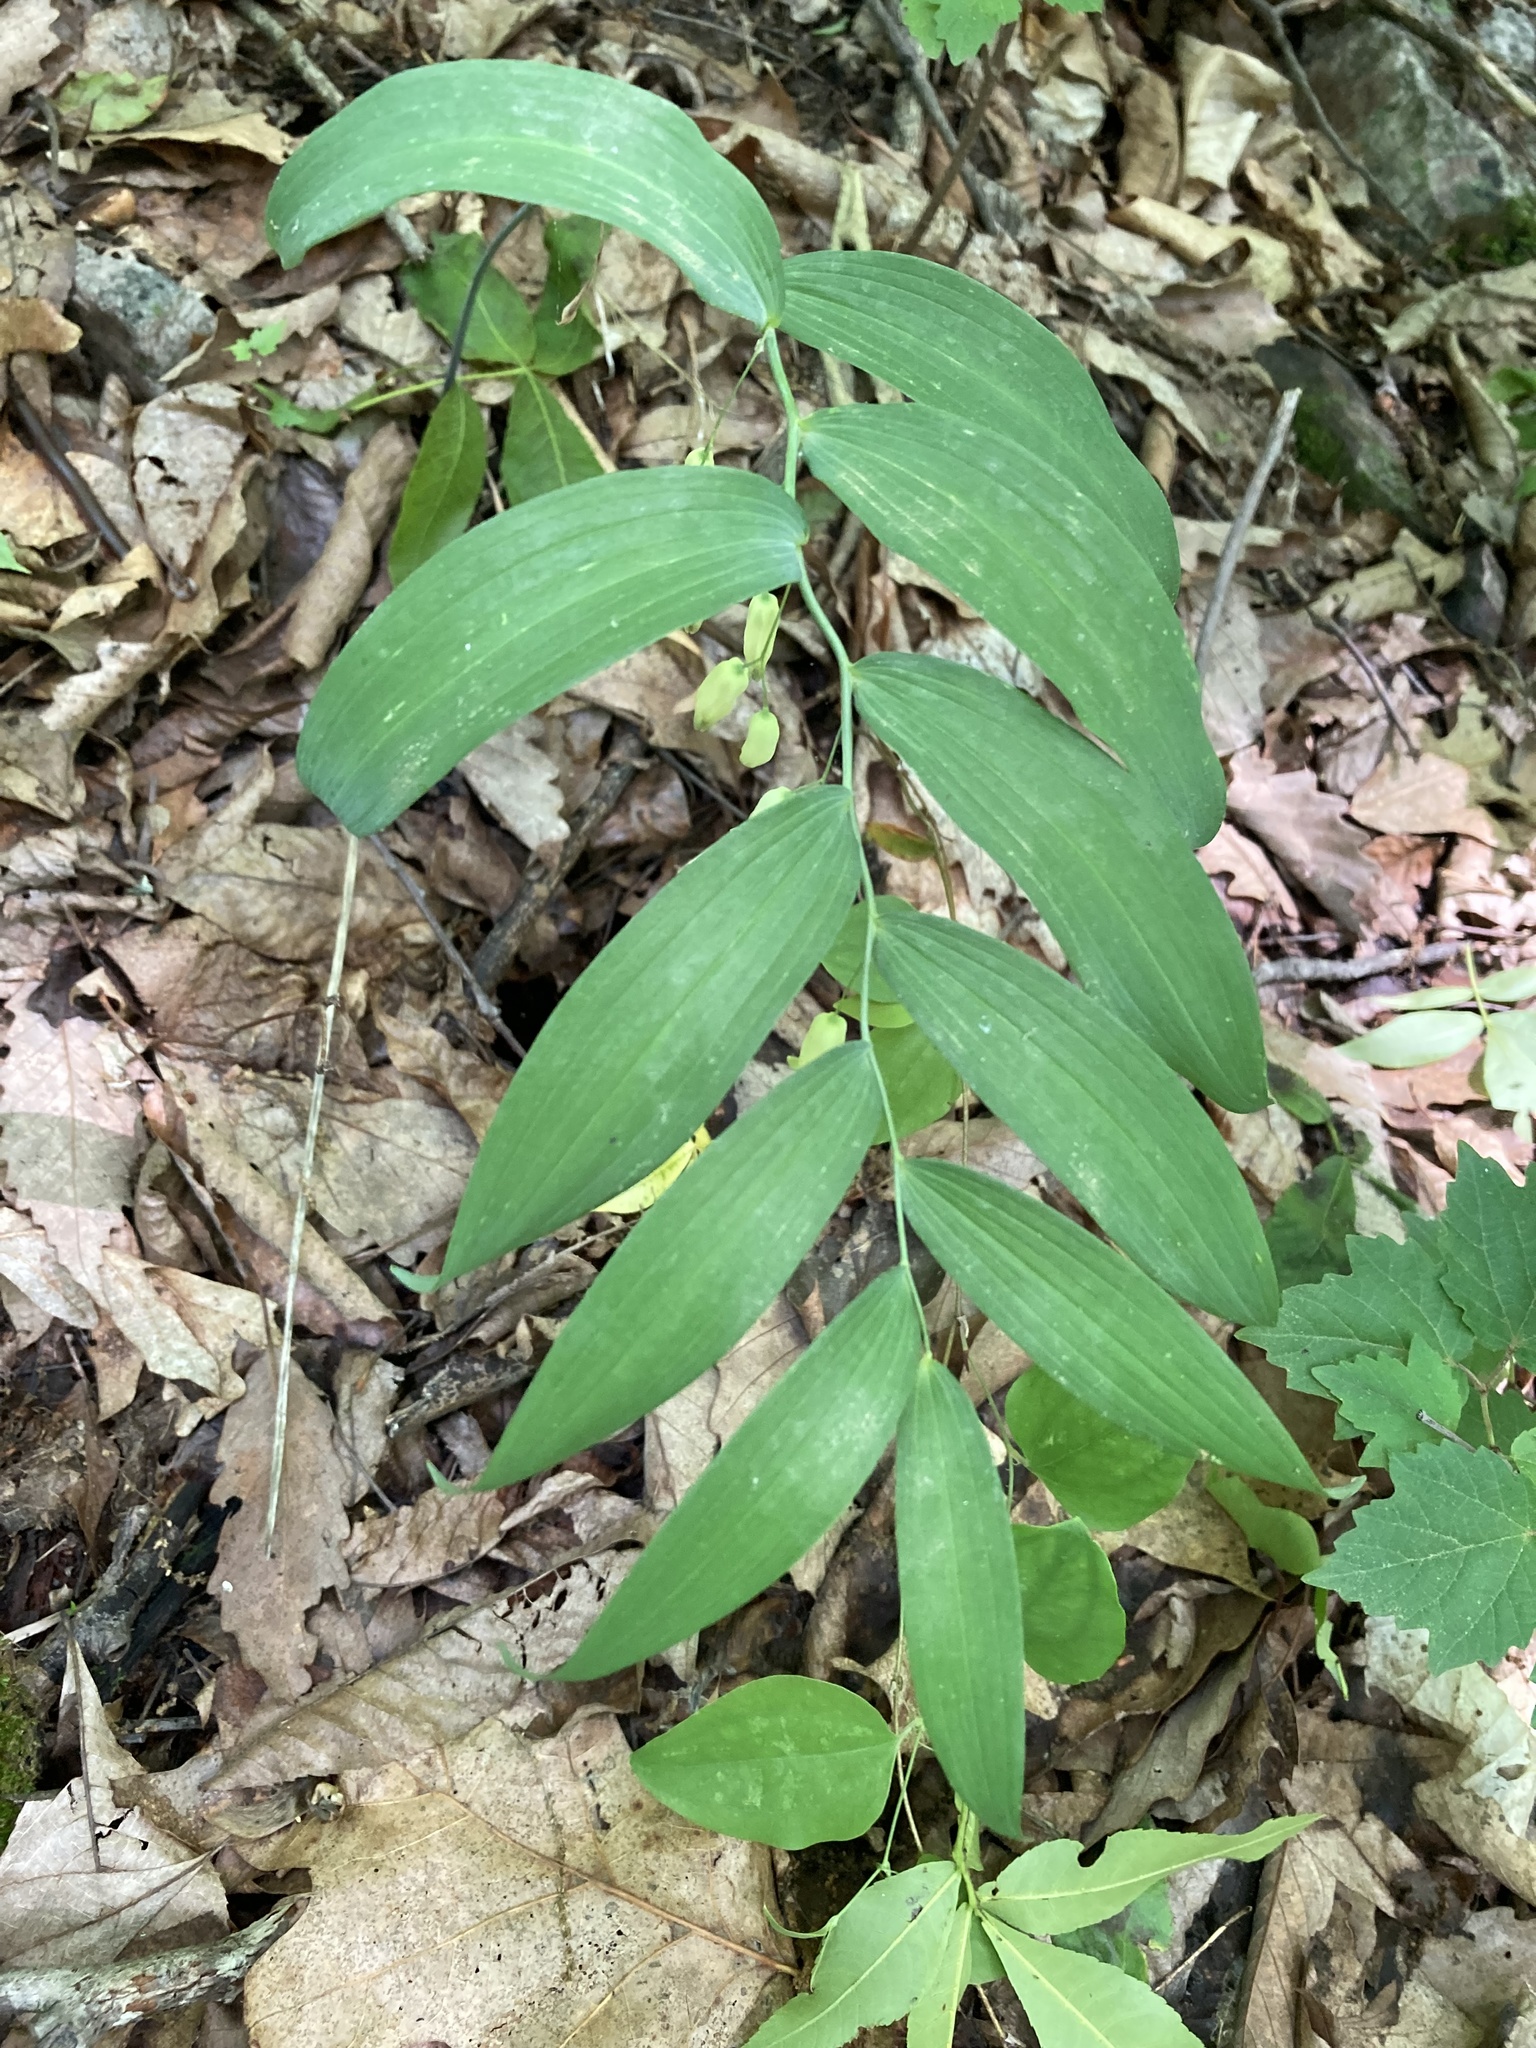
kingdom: Plantae
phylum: Tracheophyta
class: Liliopsida
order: Asparagales
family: Asparagaceae
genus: Polygonatum
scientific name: Polygonatum biflorum
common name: American solomon's-seal
